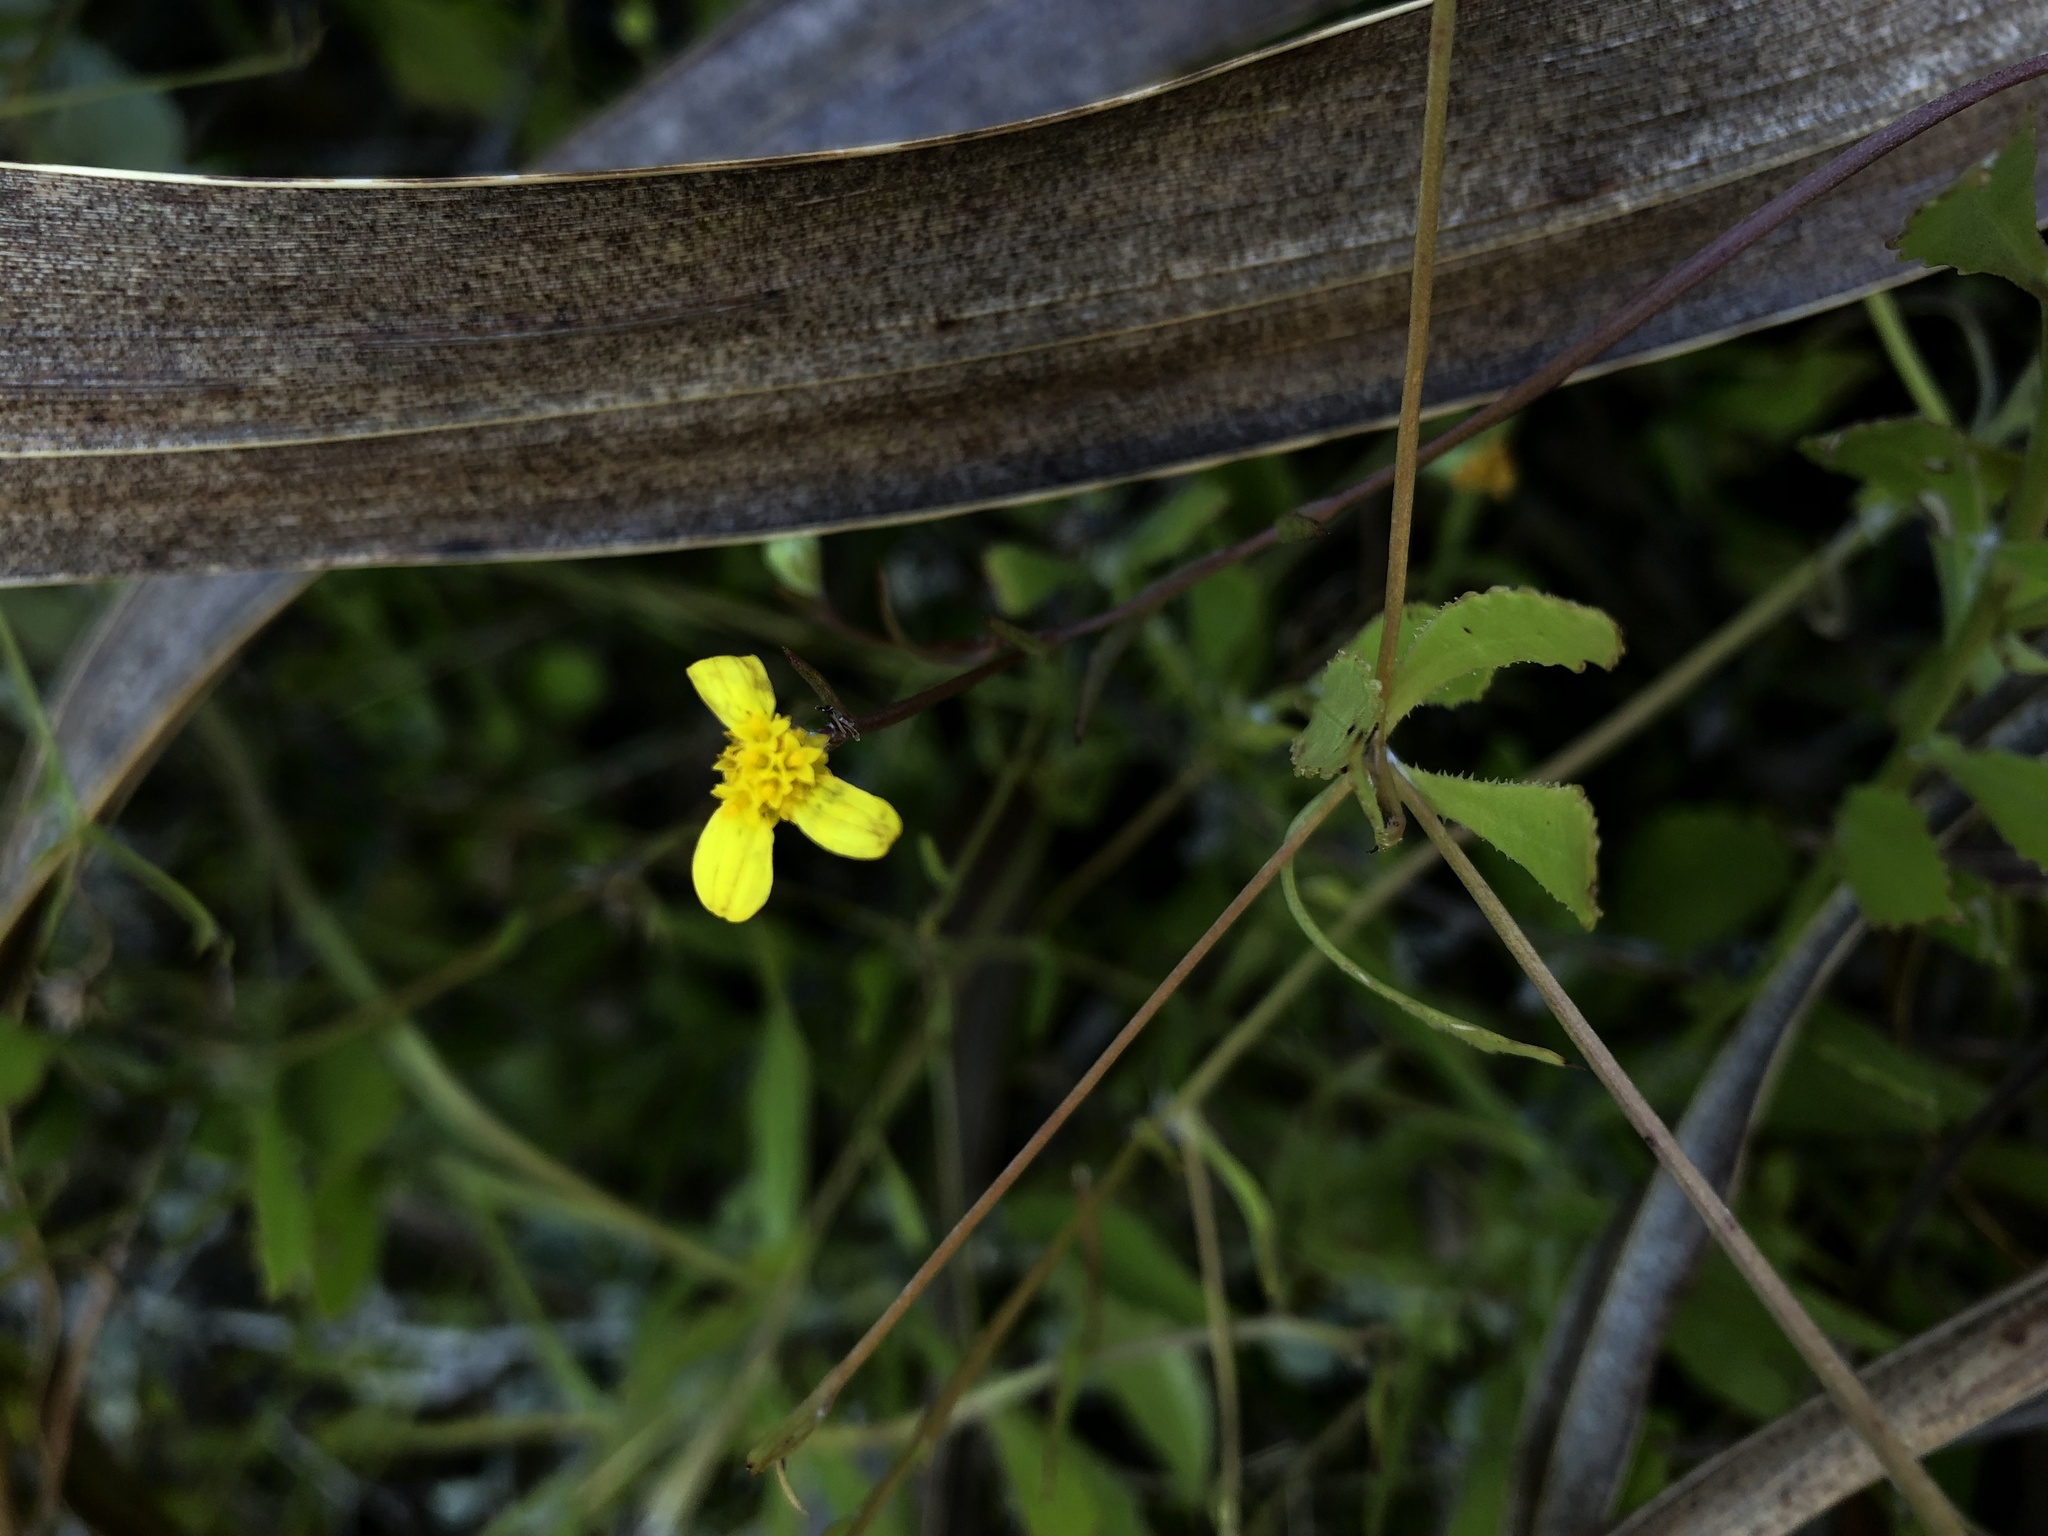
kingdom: Plantae
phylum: Tracheophyta
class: Magnoliopsida
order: Asterales
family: Asteraceae
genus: Osteospermum
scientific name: Osteospermum ciliatum
